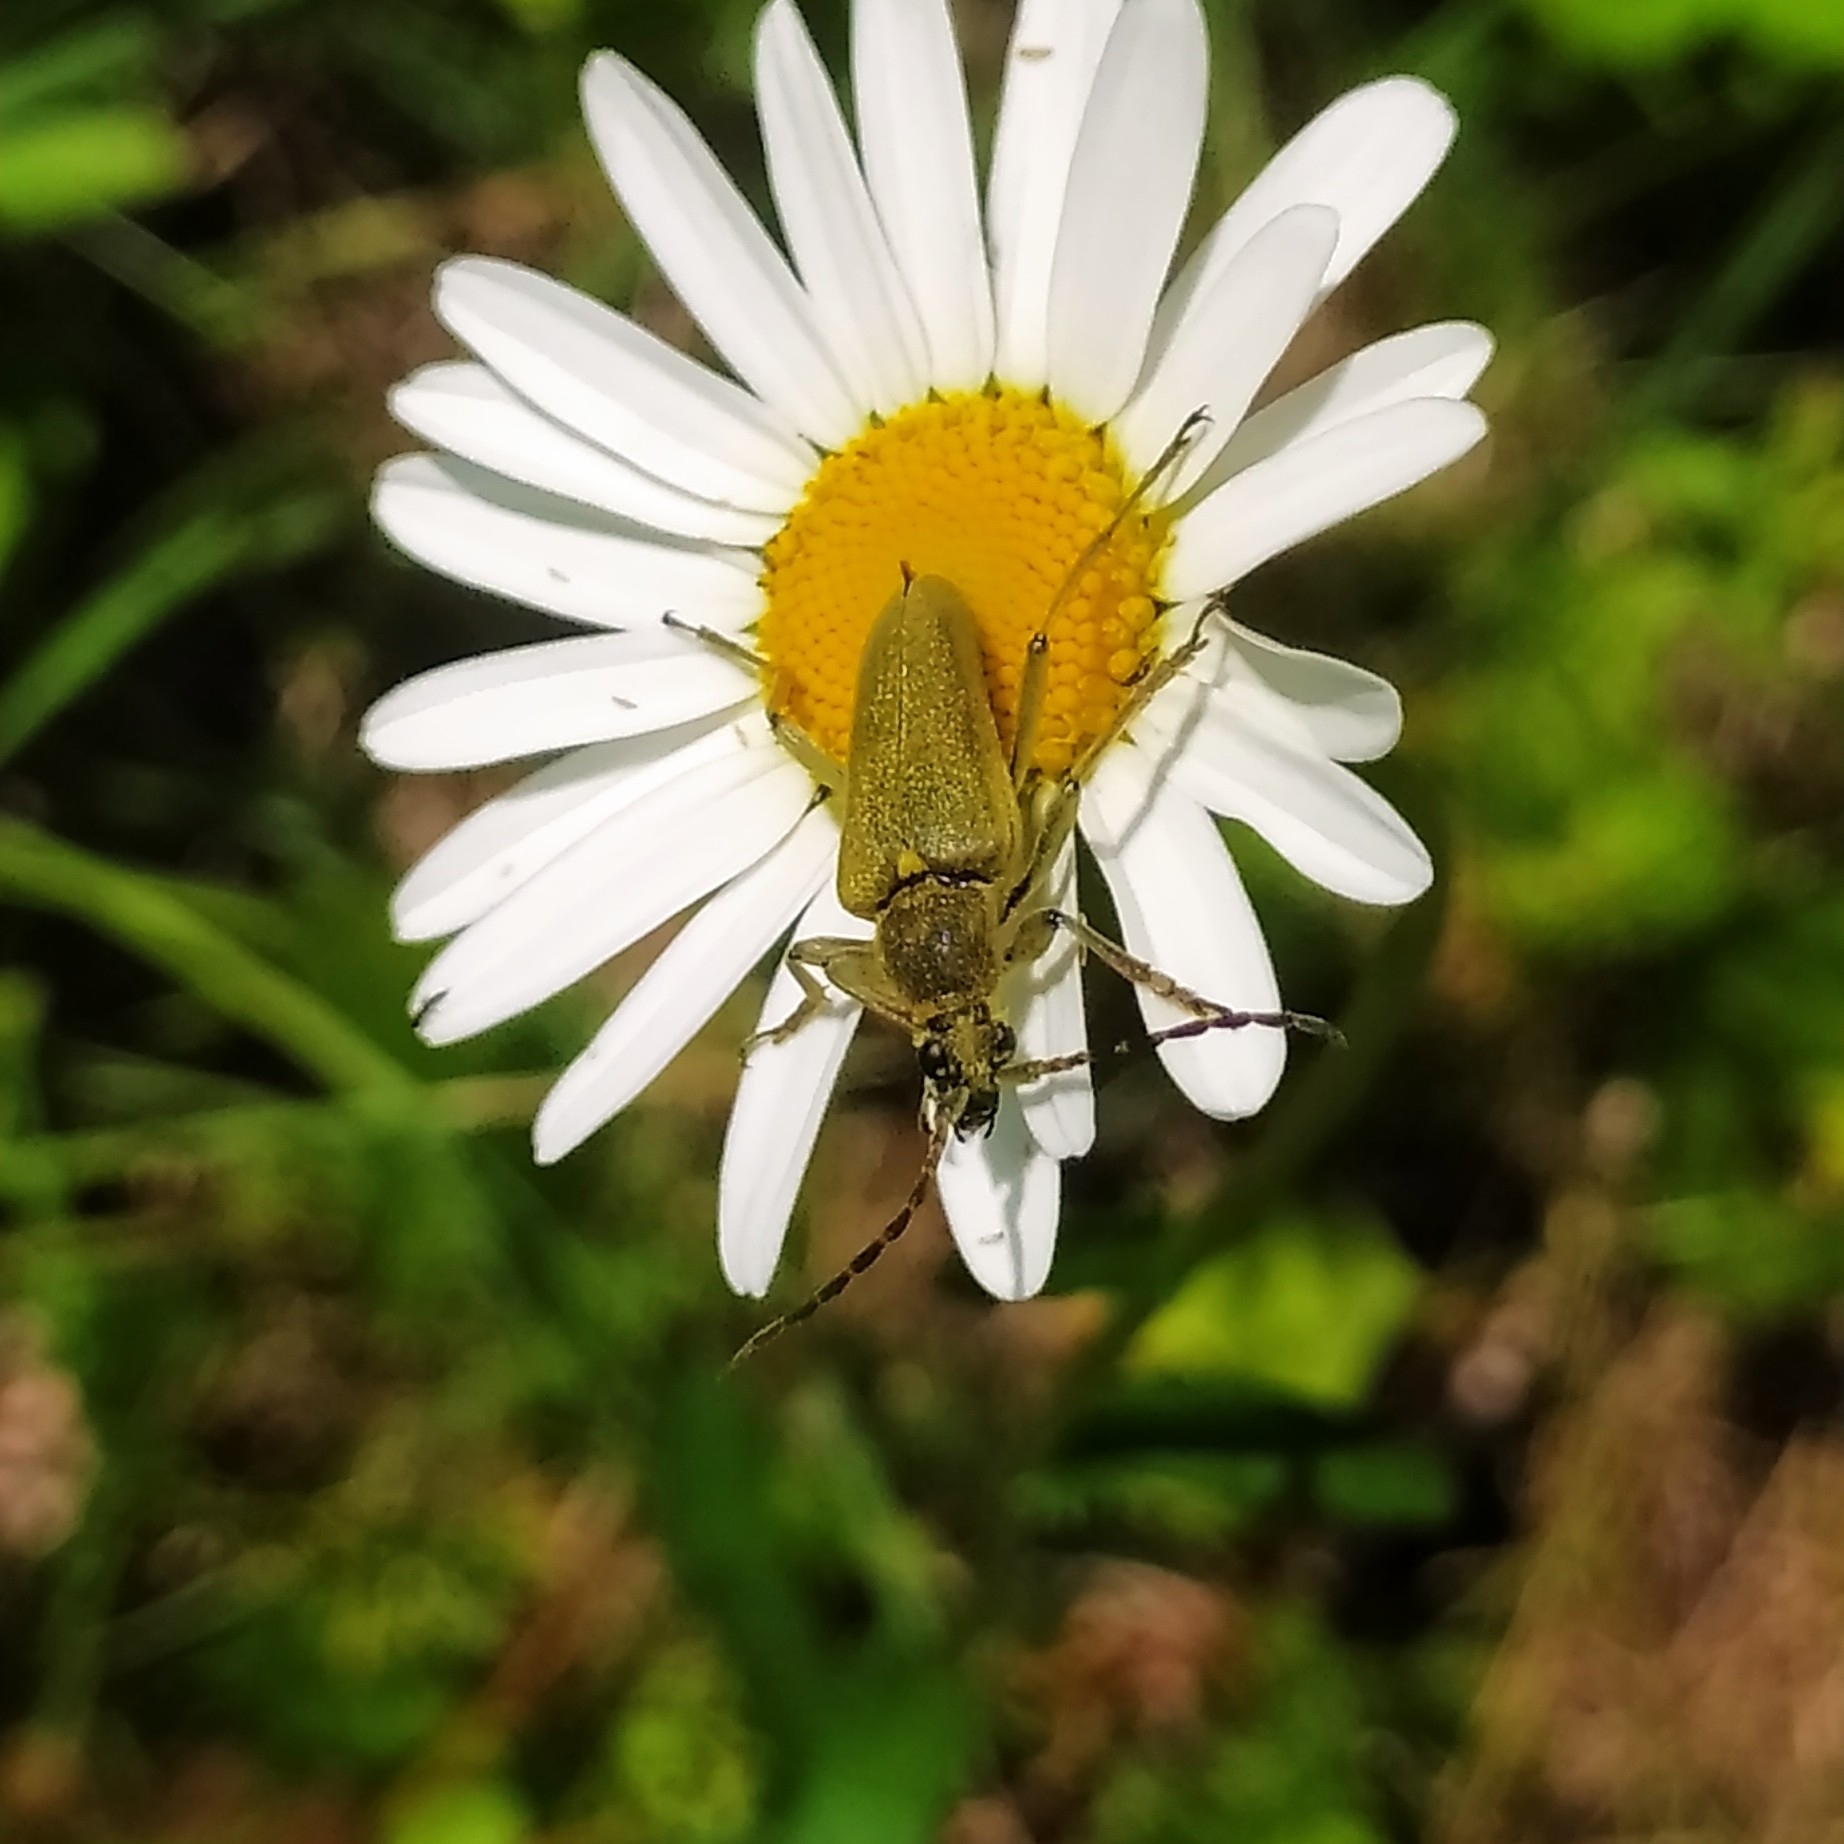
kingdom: Animalia
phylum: Arthropoda
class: Insecta
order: Coleoptera
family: Cerambycidae
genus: Lepturobosca
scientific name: Lepturobosca virens
